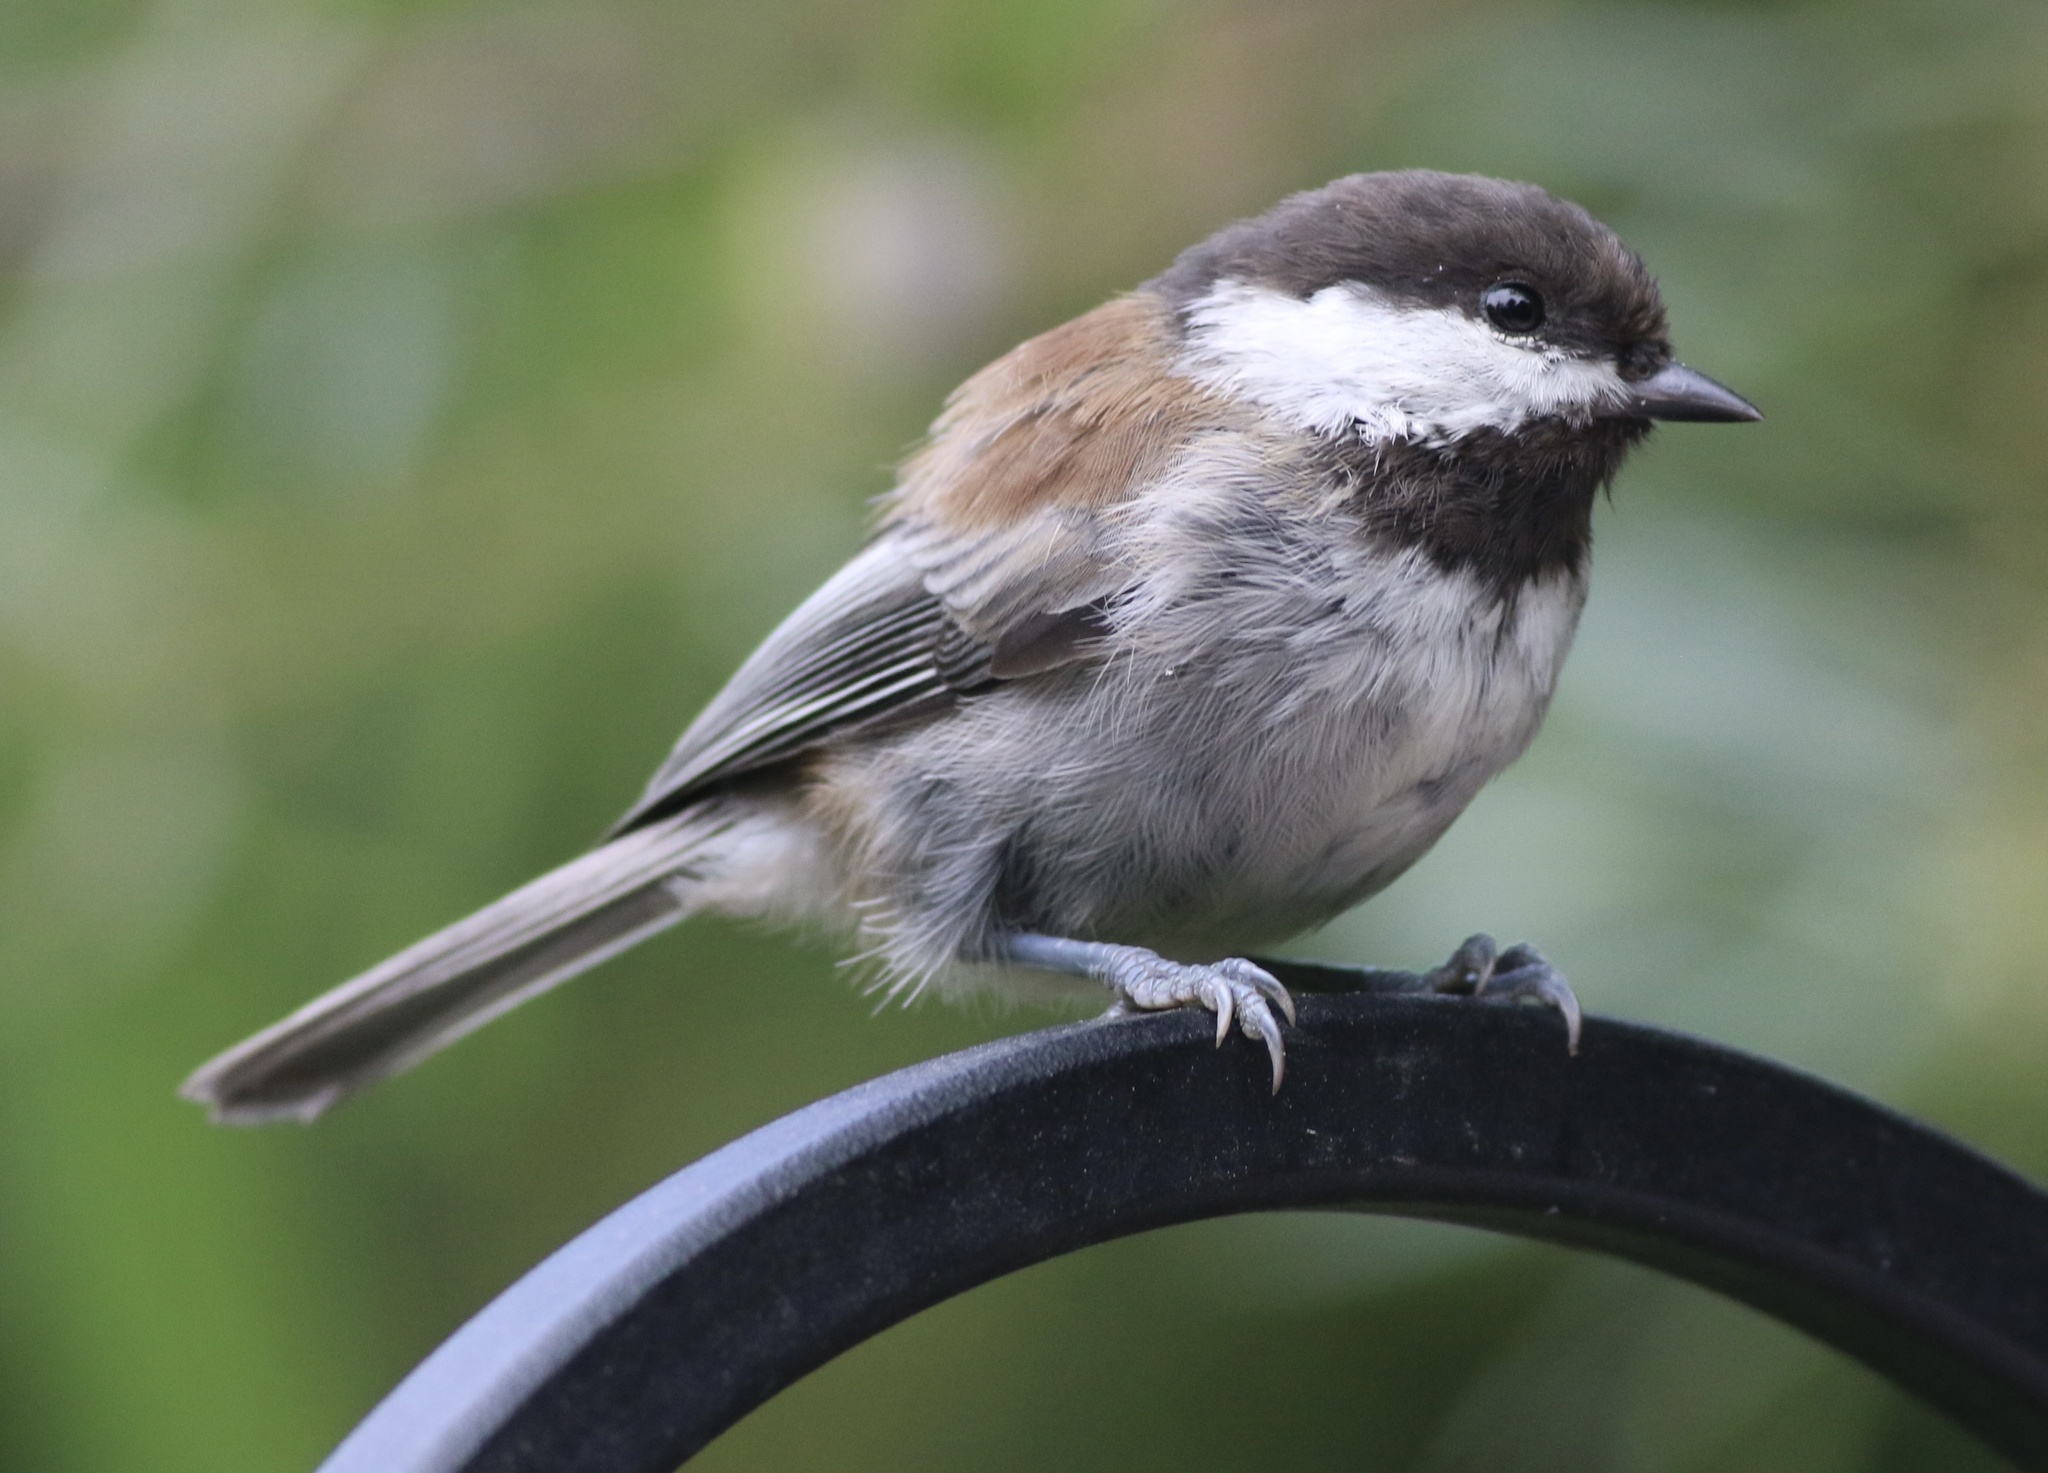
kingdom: Animalia
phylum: Chordata
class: Aves
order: Passeriformes
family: Paridae
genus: Poecile
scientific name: Poecile rufescens
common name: Chestnut-backed chickadee
